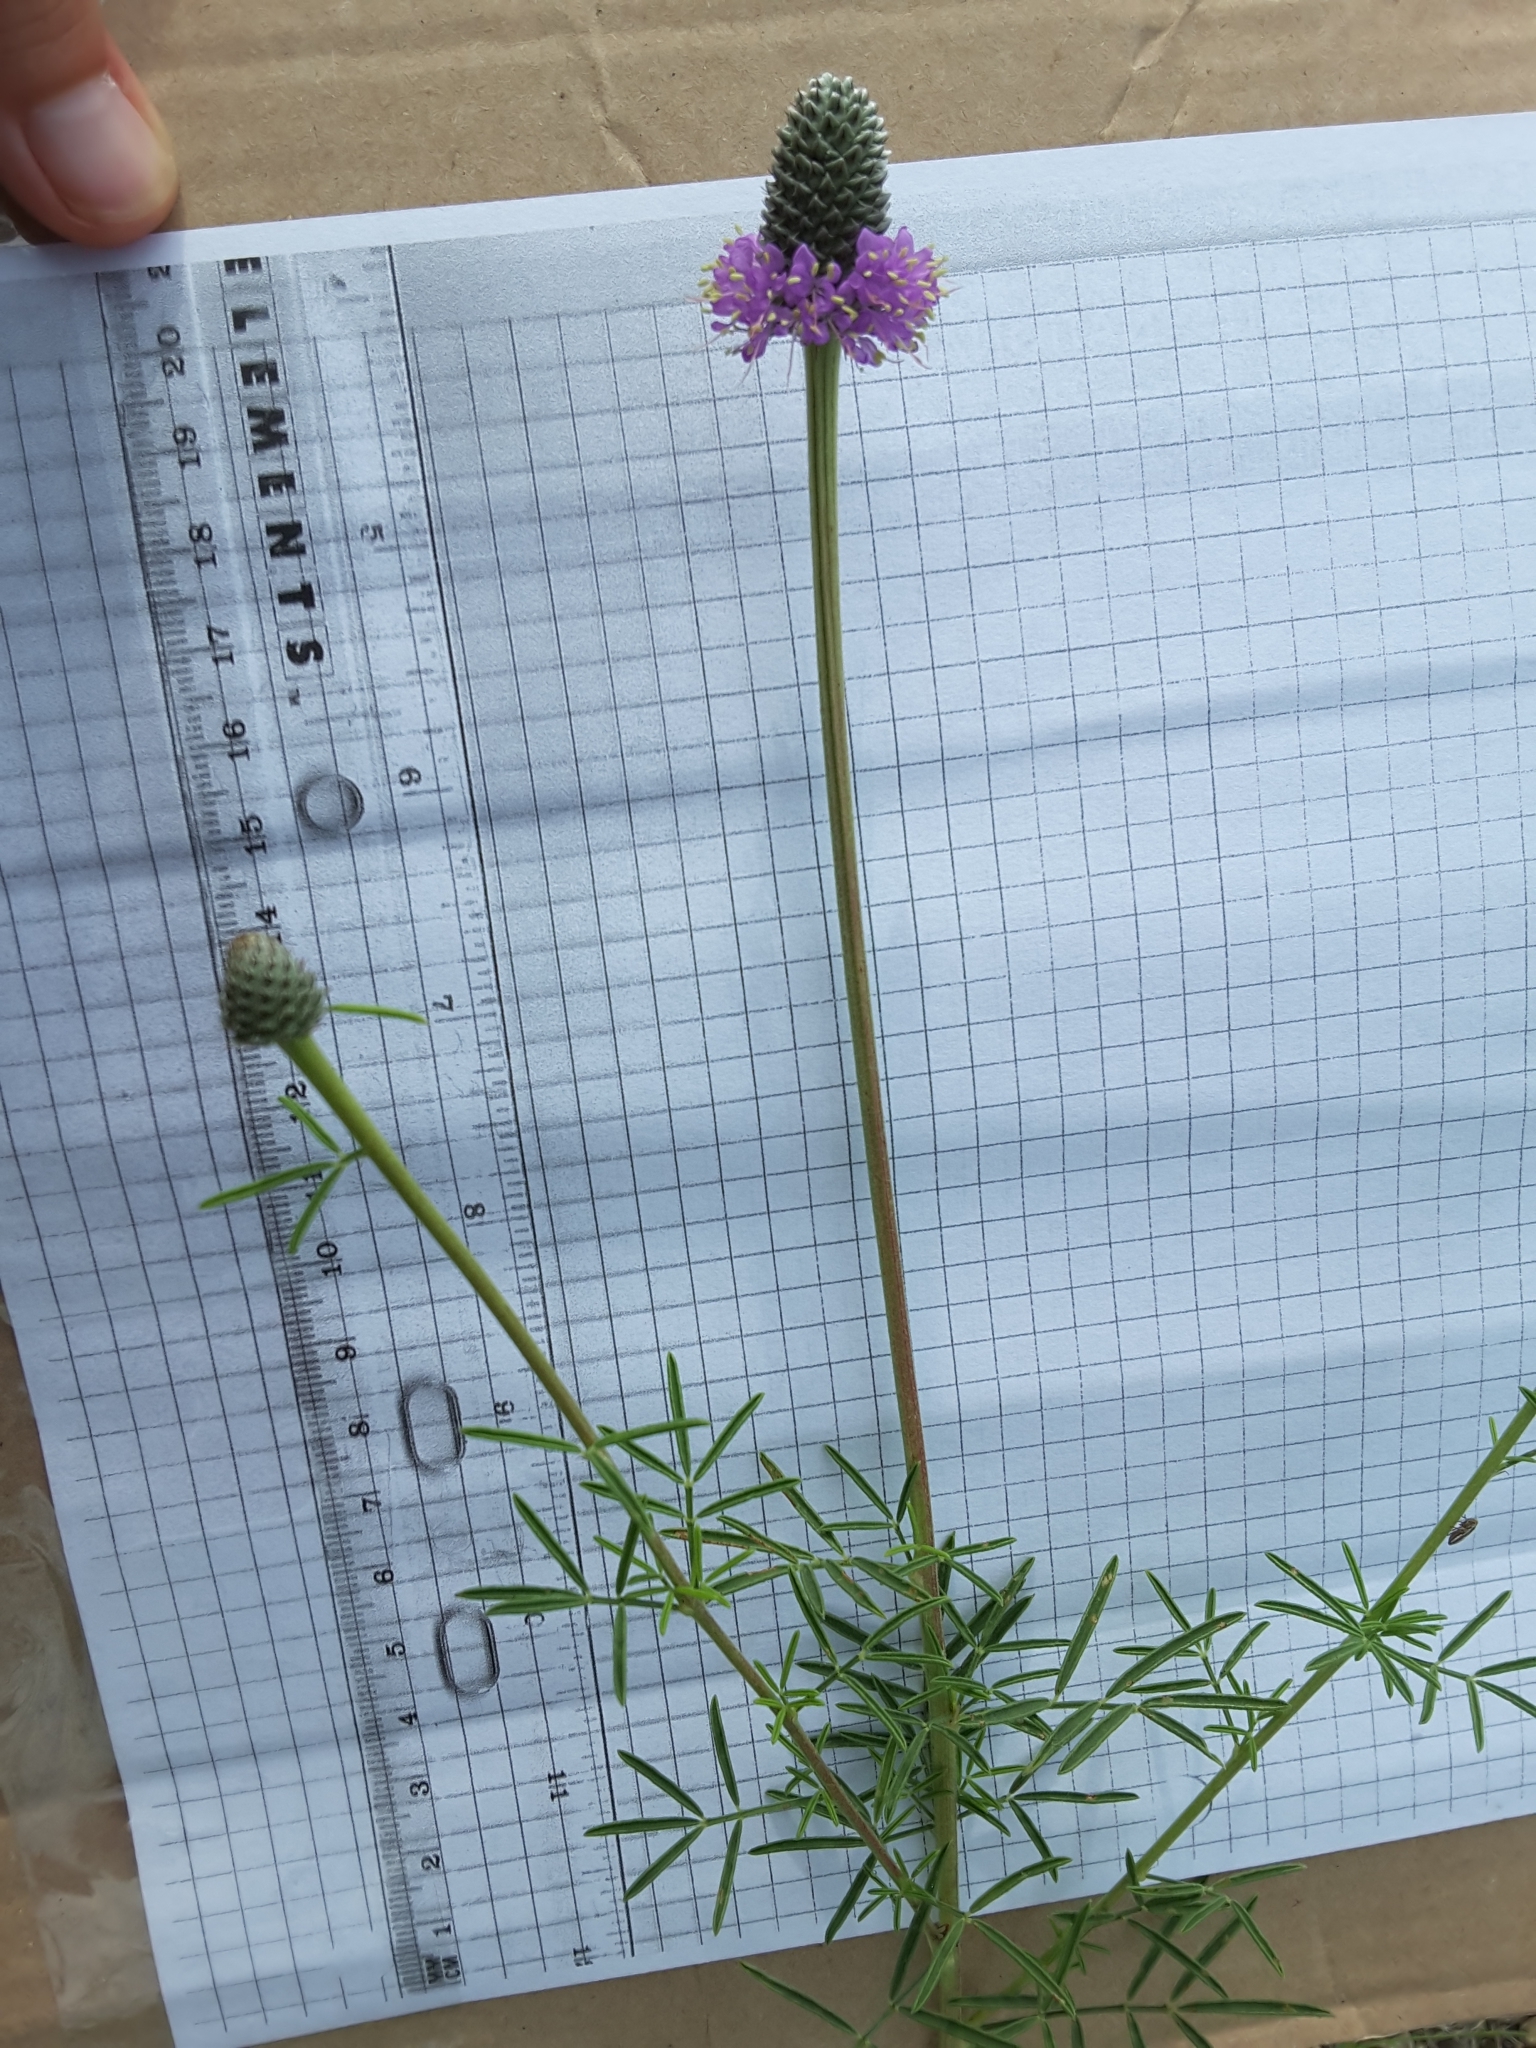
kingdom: Plantae
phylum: Tracheophyta
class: Magnoliopsida
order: Fabales
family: Fabaceae
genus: Dalea
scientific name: Dalea compacta
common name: Compact prairie-clover
